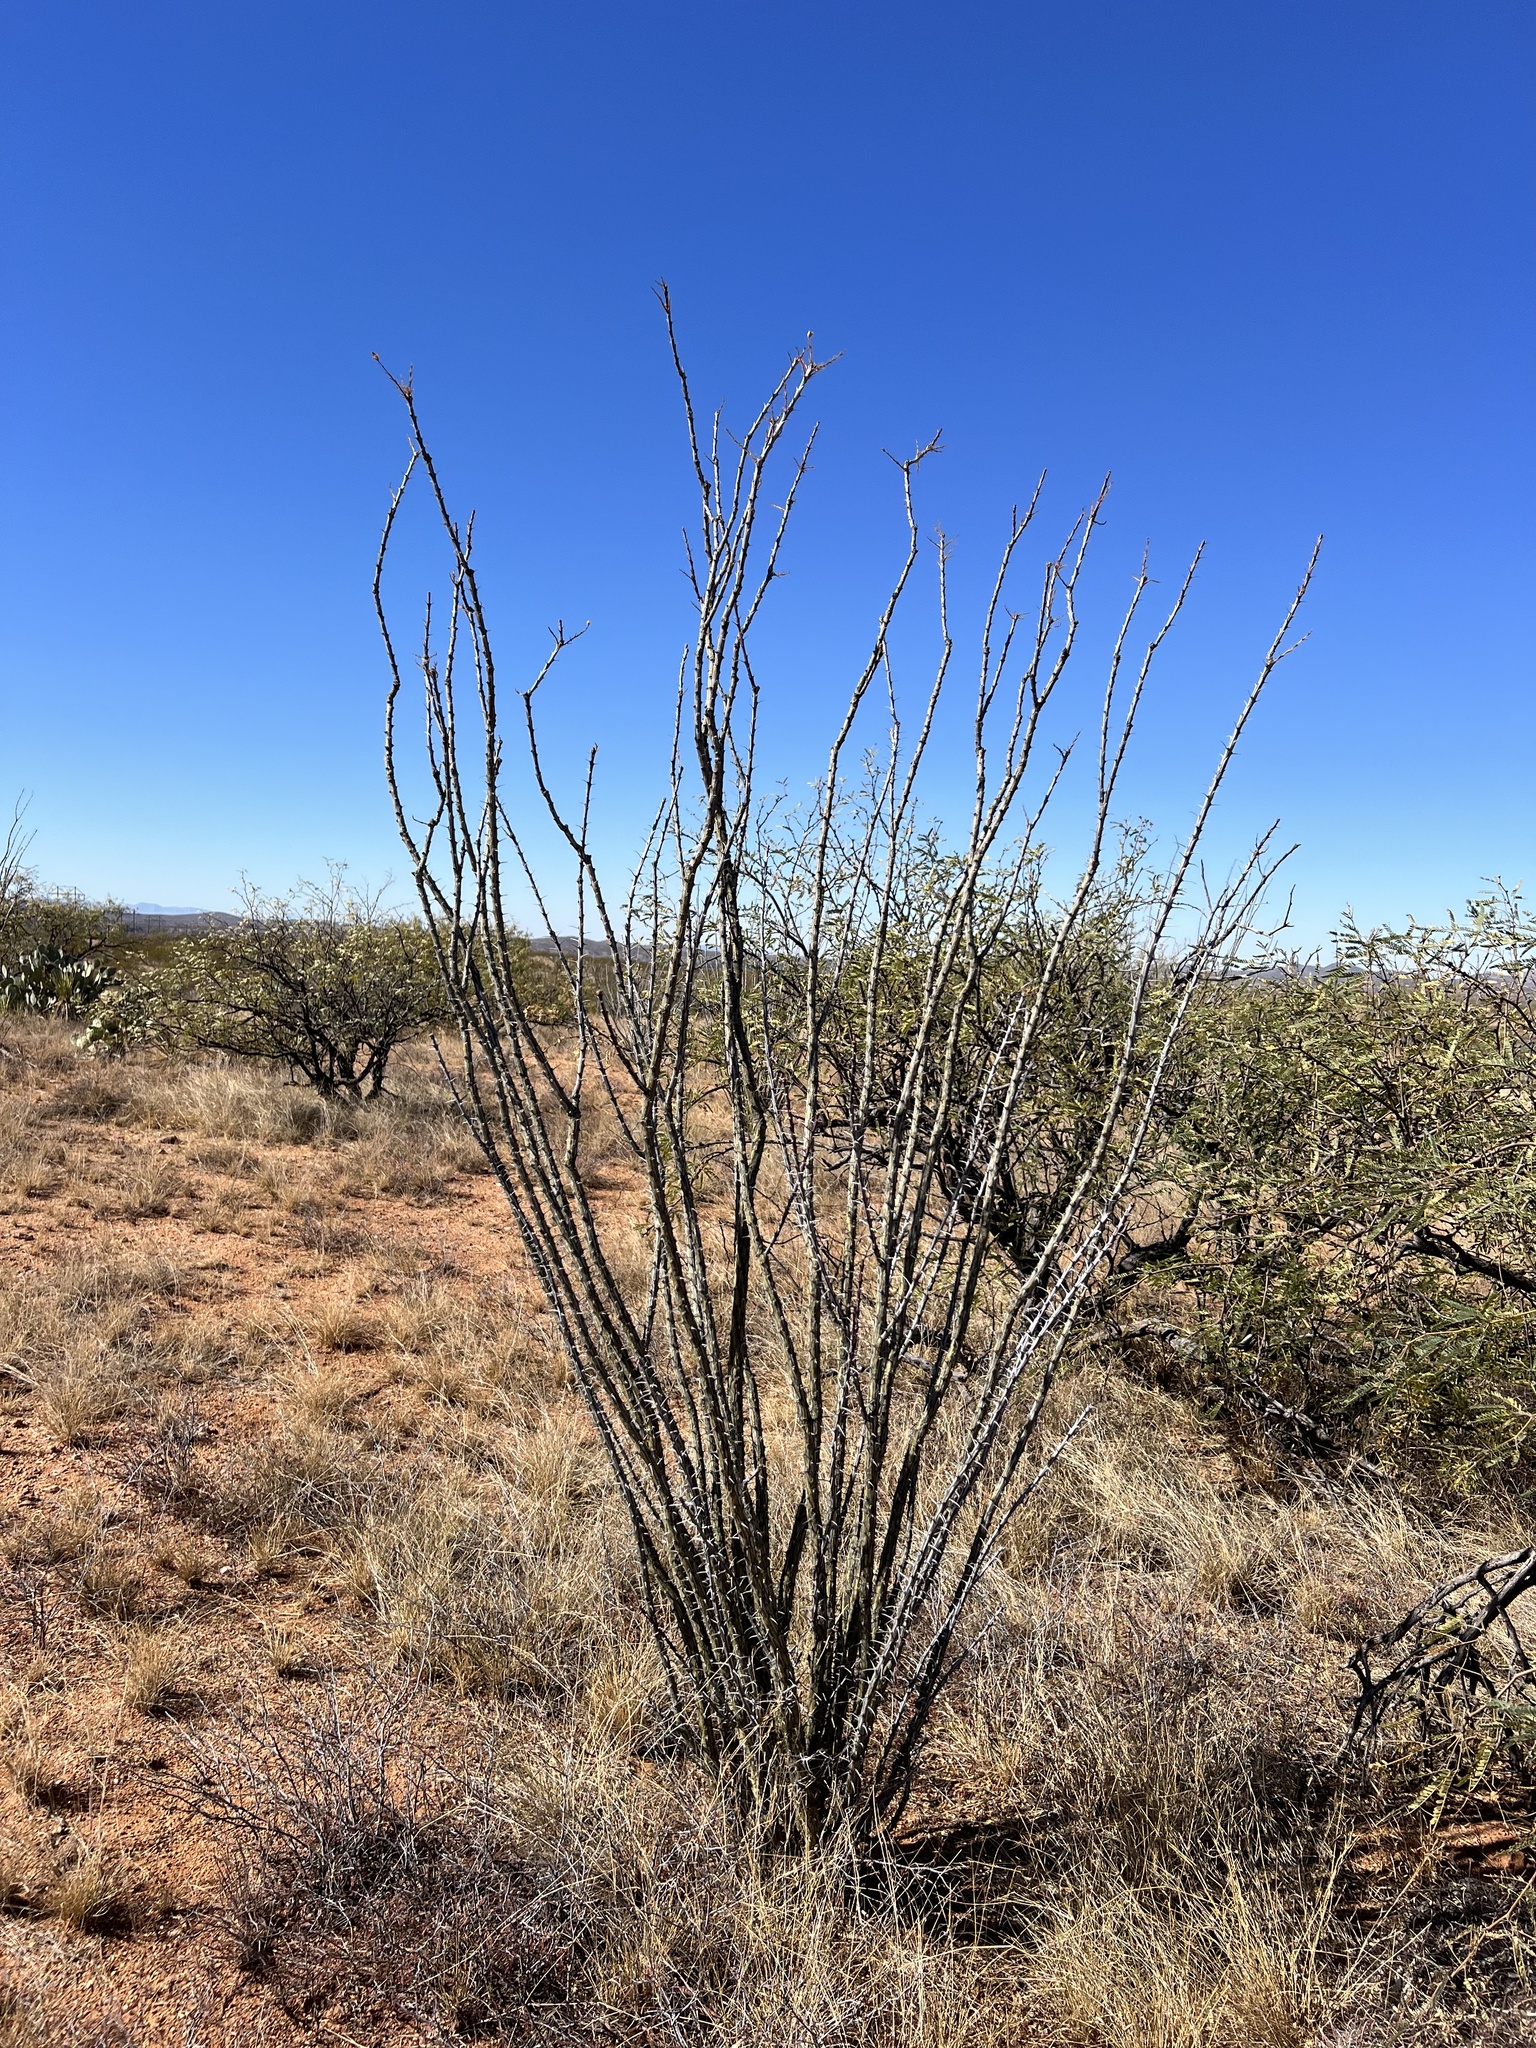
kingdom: Plantae
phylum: Tracheophyta
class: Magnoliopsida
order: Ericales
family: Fouquieriaceae
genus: Fouquieria
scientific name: Fouquieria splendens
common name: Vine-cactus
